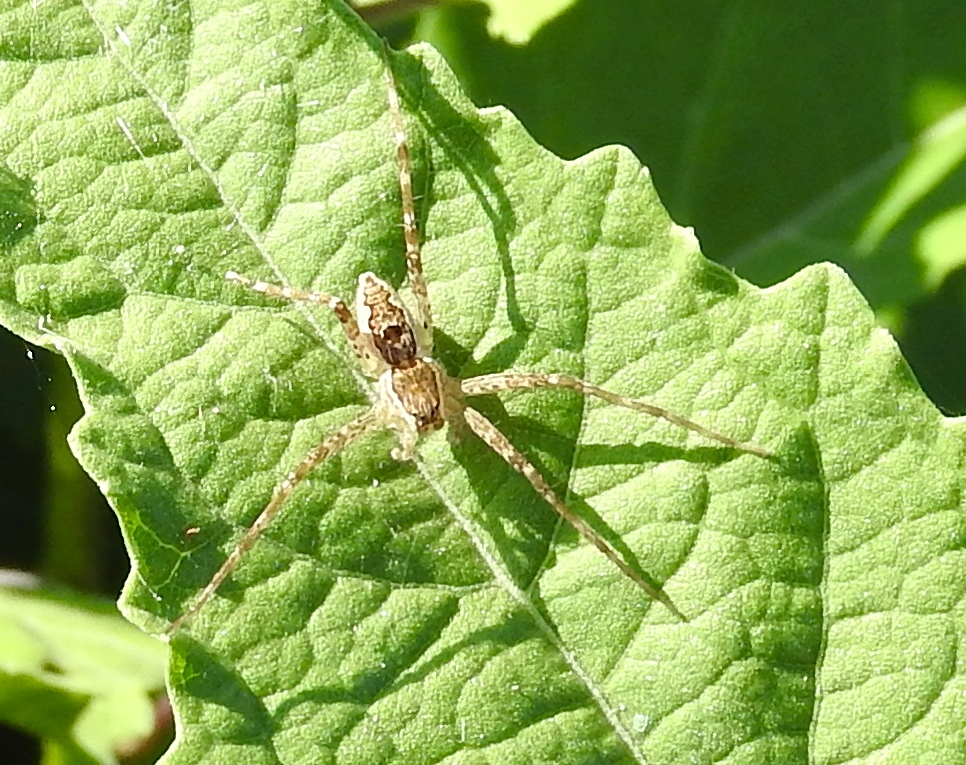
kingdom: Animalia
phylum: Arthropoda
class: Arachnida
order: Araneae
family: Pisauridae
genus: Tinus
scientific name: Tinus
